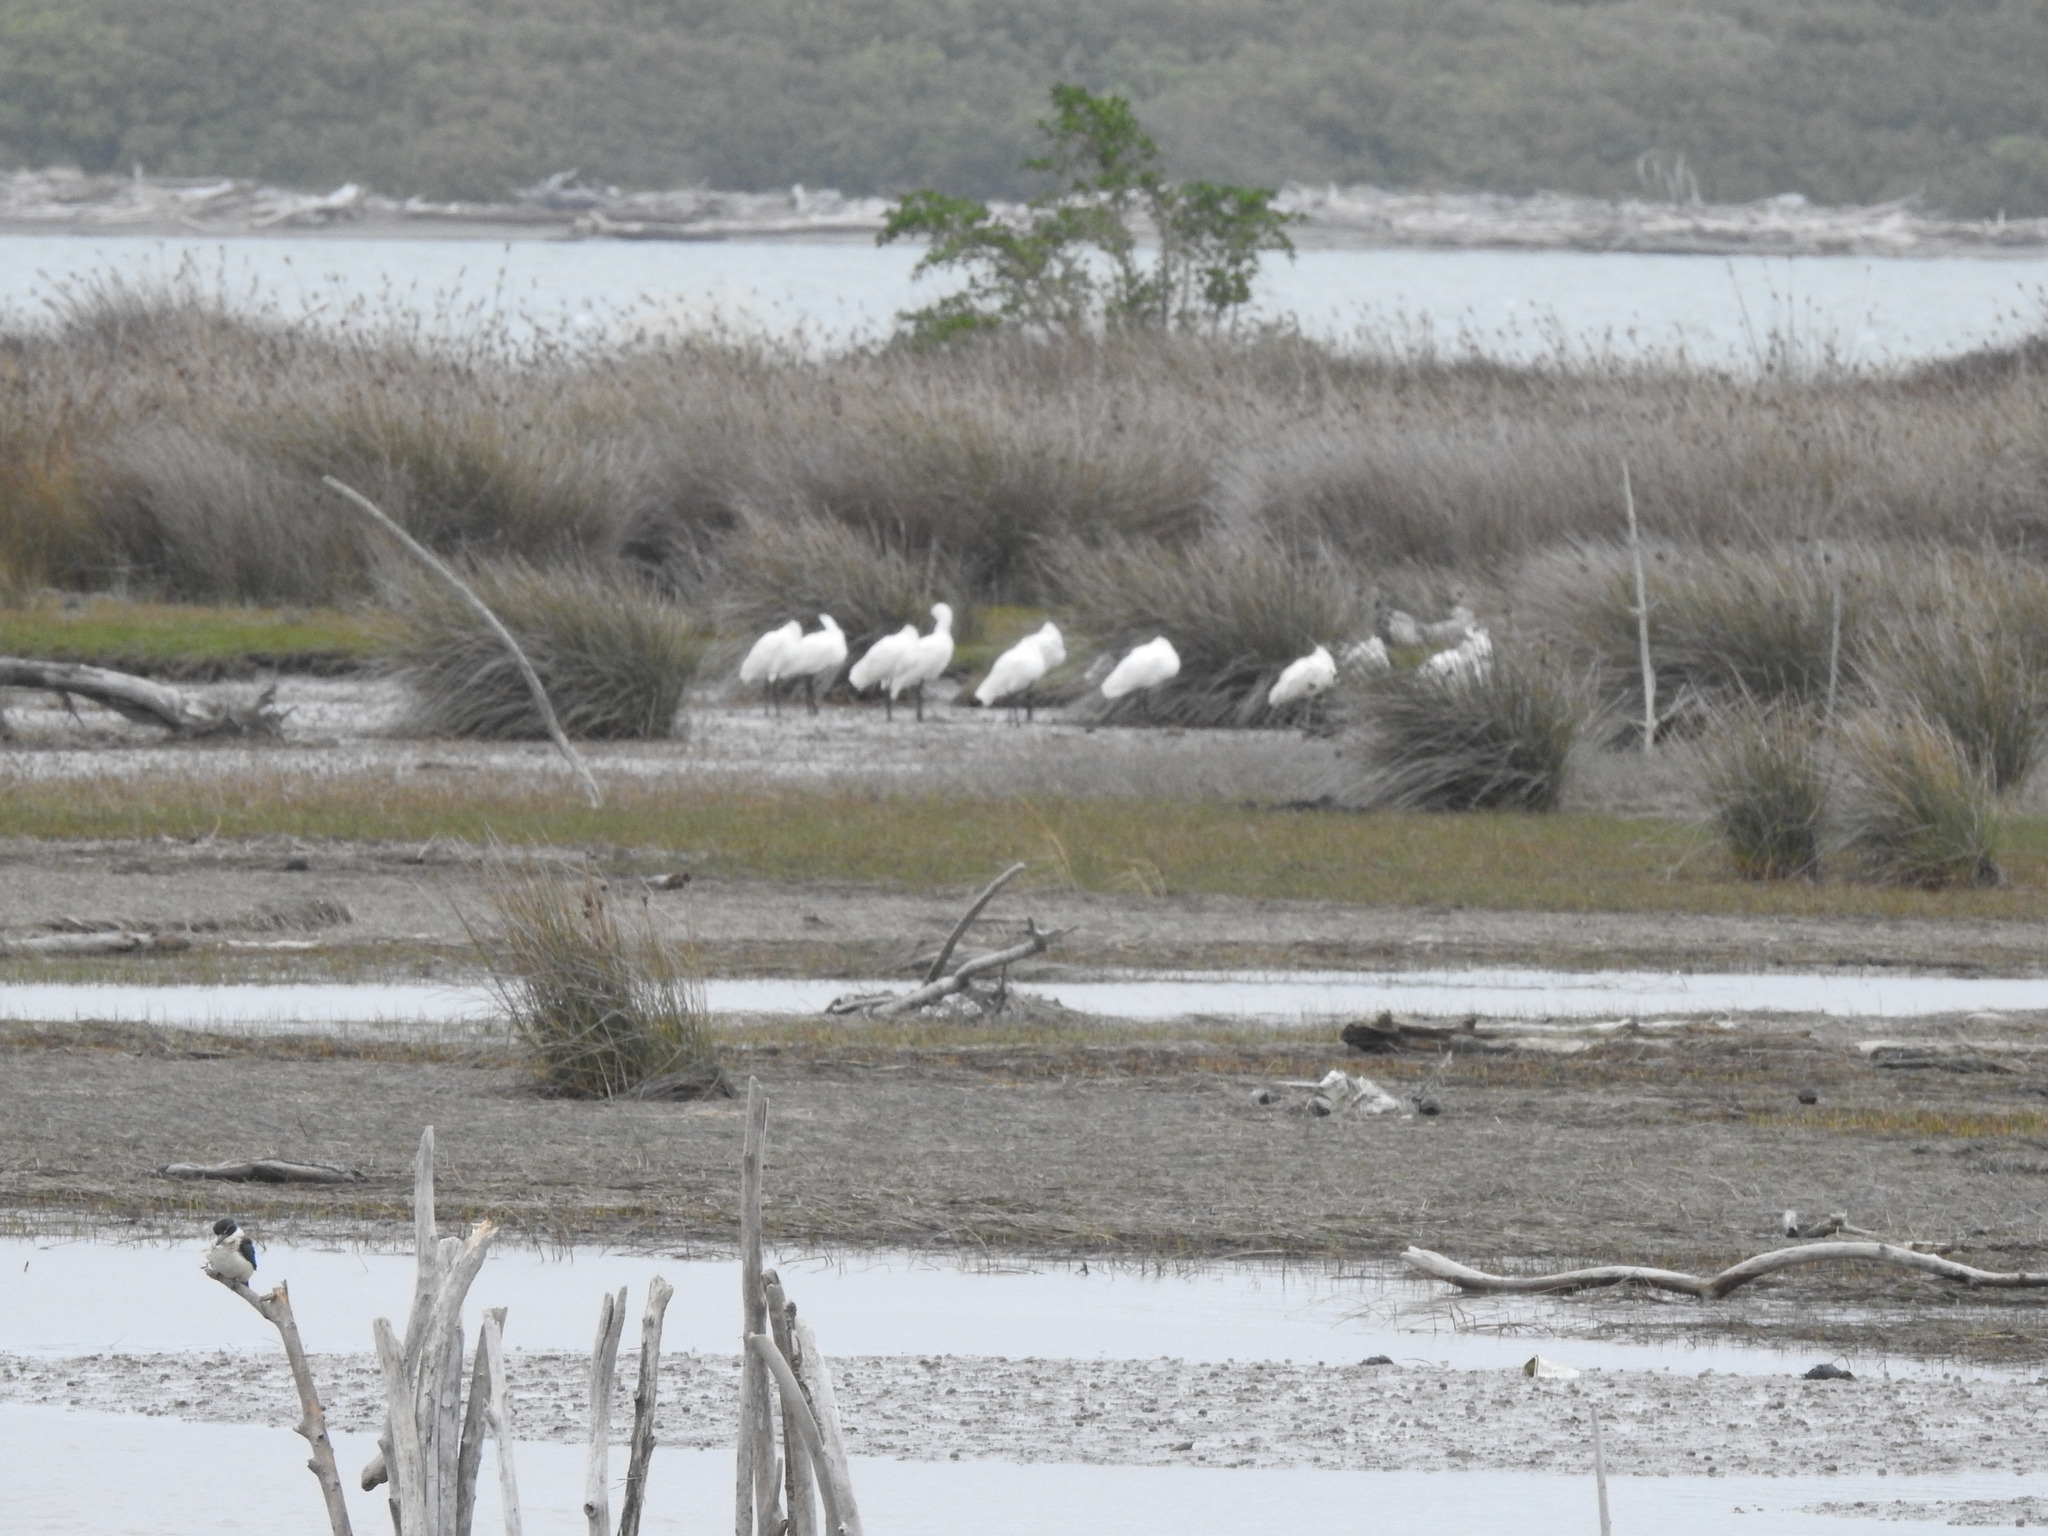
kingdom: Animalia
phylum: Chordata
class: Aves
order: Pelecaniformes
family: Threskiornithidae
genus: Platalea
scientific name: Platalea regia
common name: Royal spoonbill
